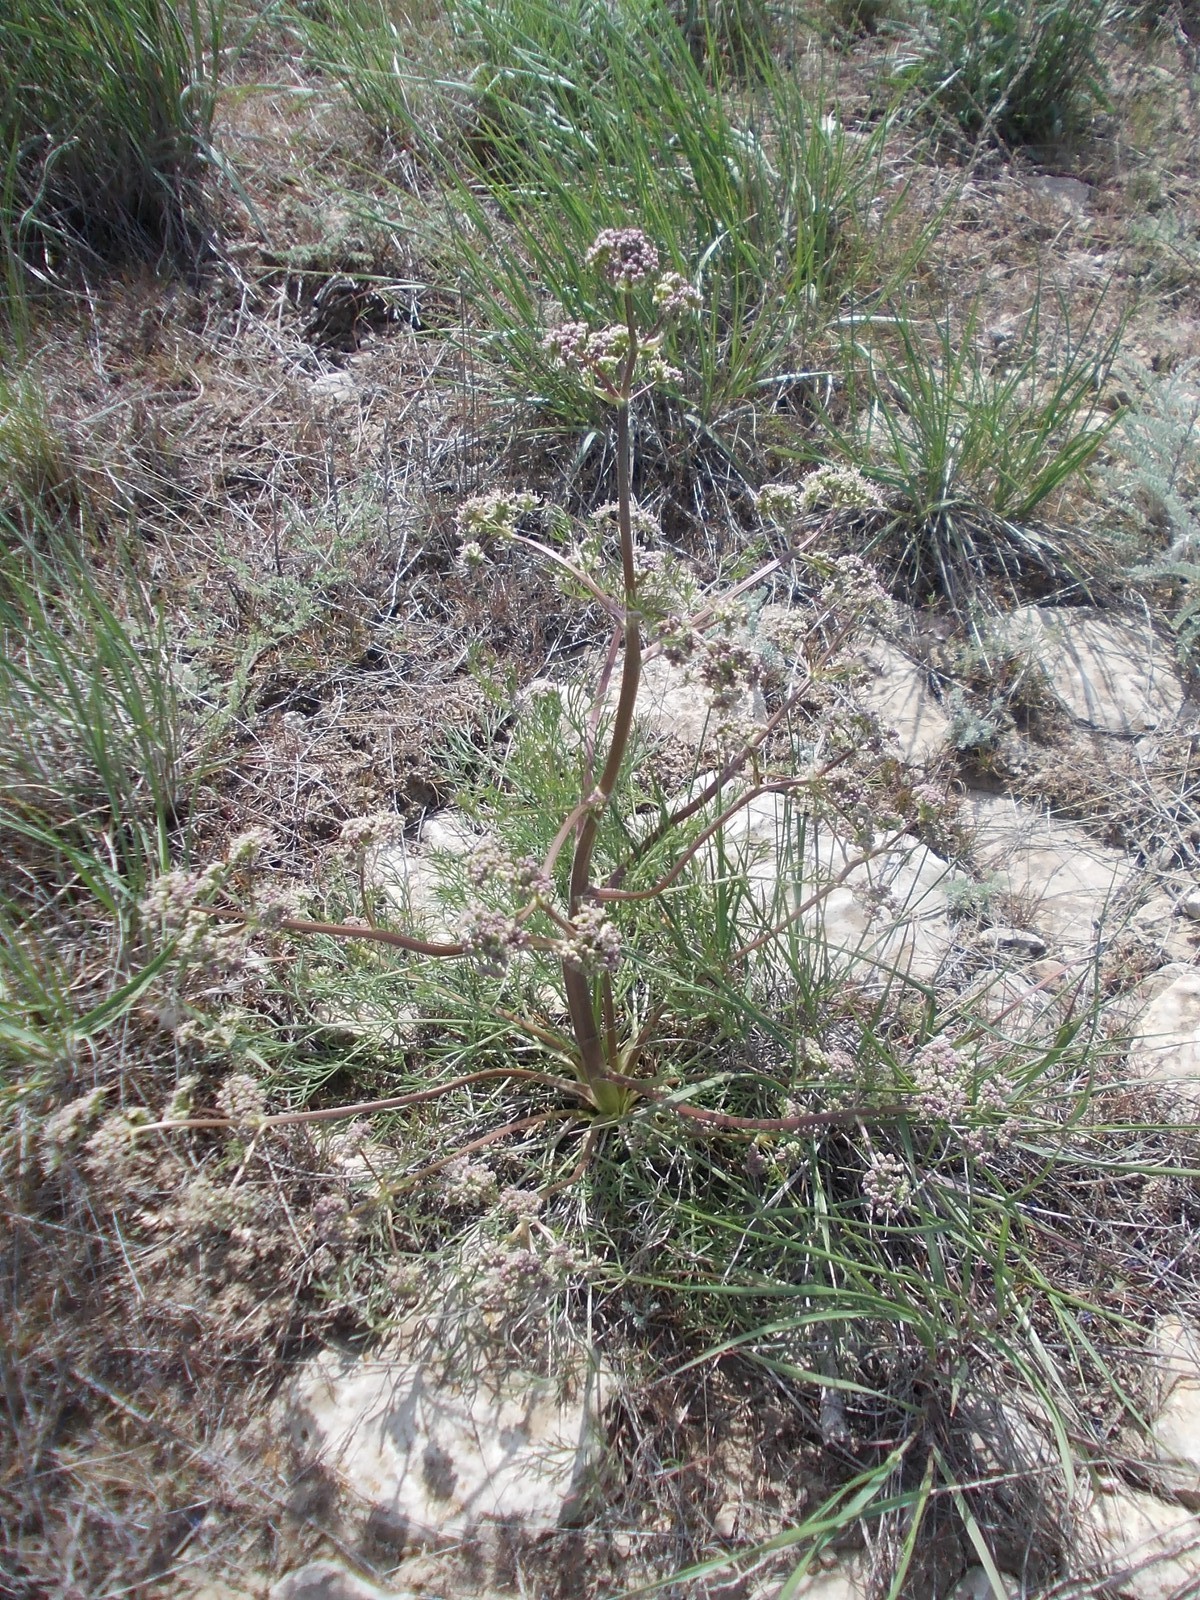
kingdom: Plantae
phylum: Tracheophyta
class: Magnoliopsida
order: Apiales
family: Apiaceae
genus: Trinia
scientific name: Trinia hispida
